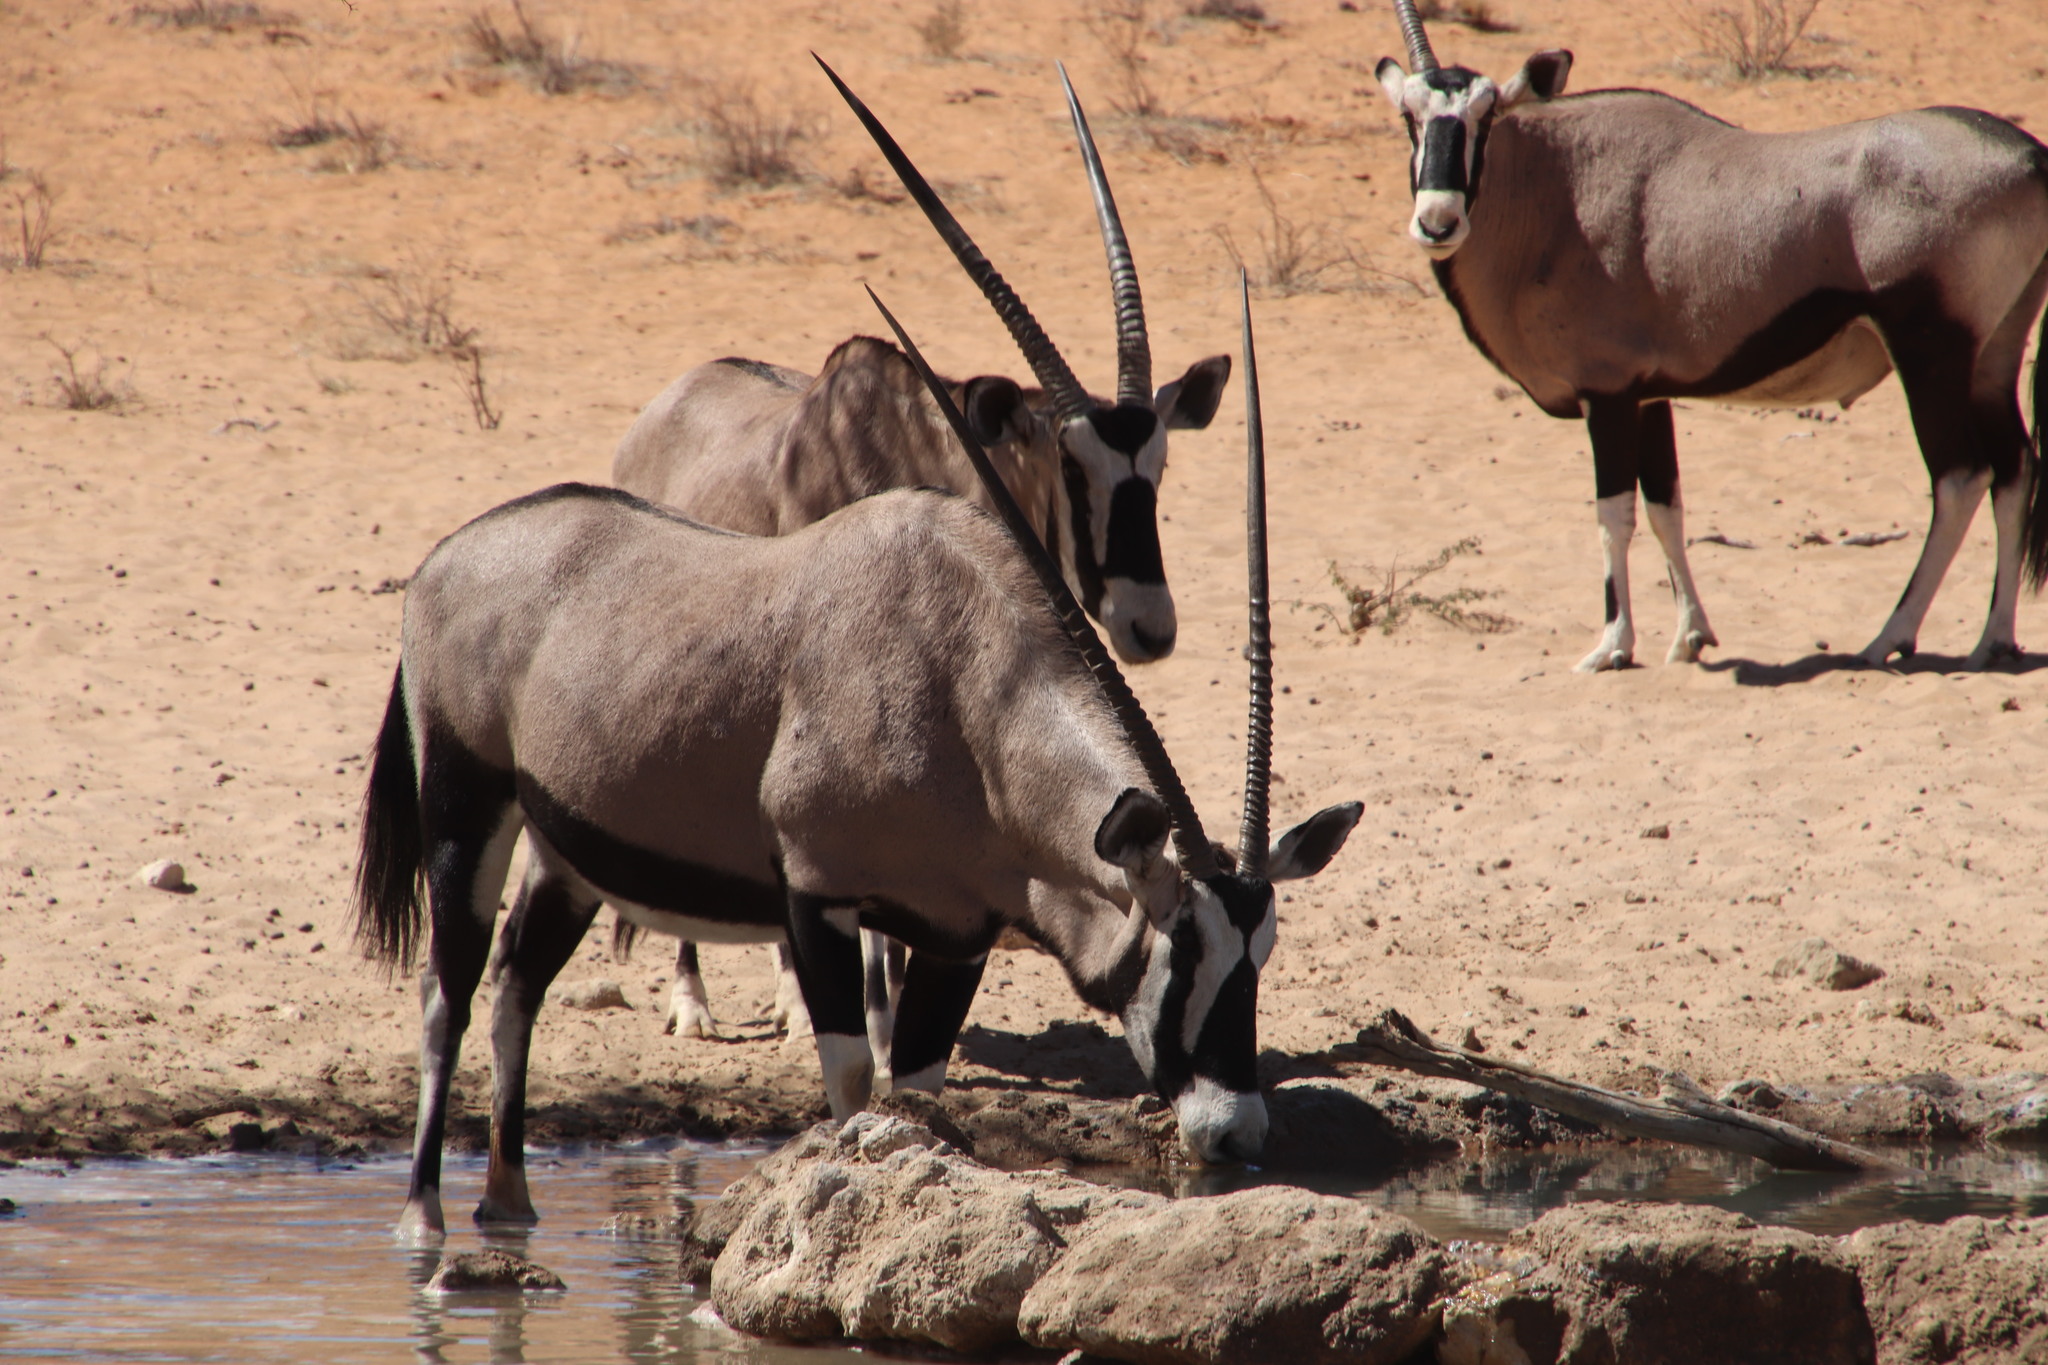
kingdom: Animalia
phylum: Chordata
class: Mammalia
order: Artiodactyla
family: Bovidae
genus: Oryx
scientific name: Oryx gazella
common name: Gemsbok
